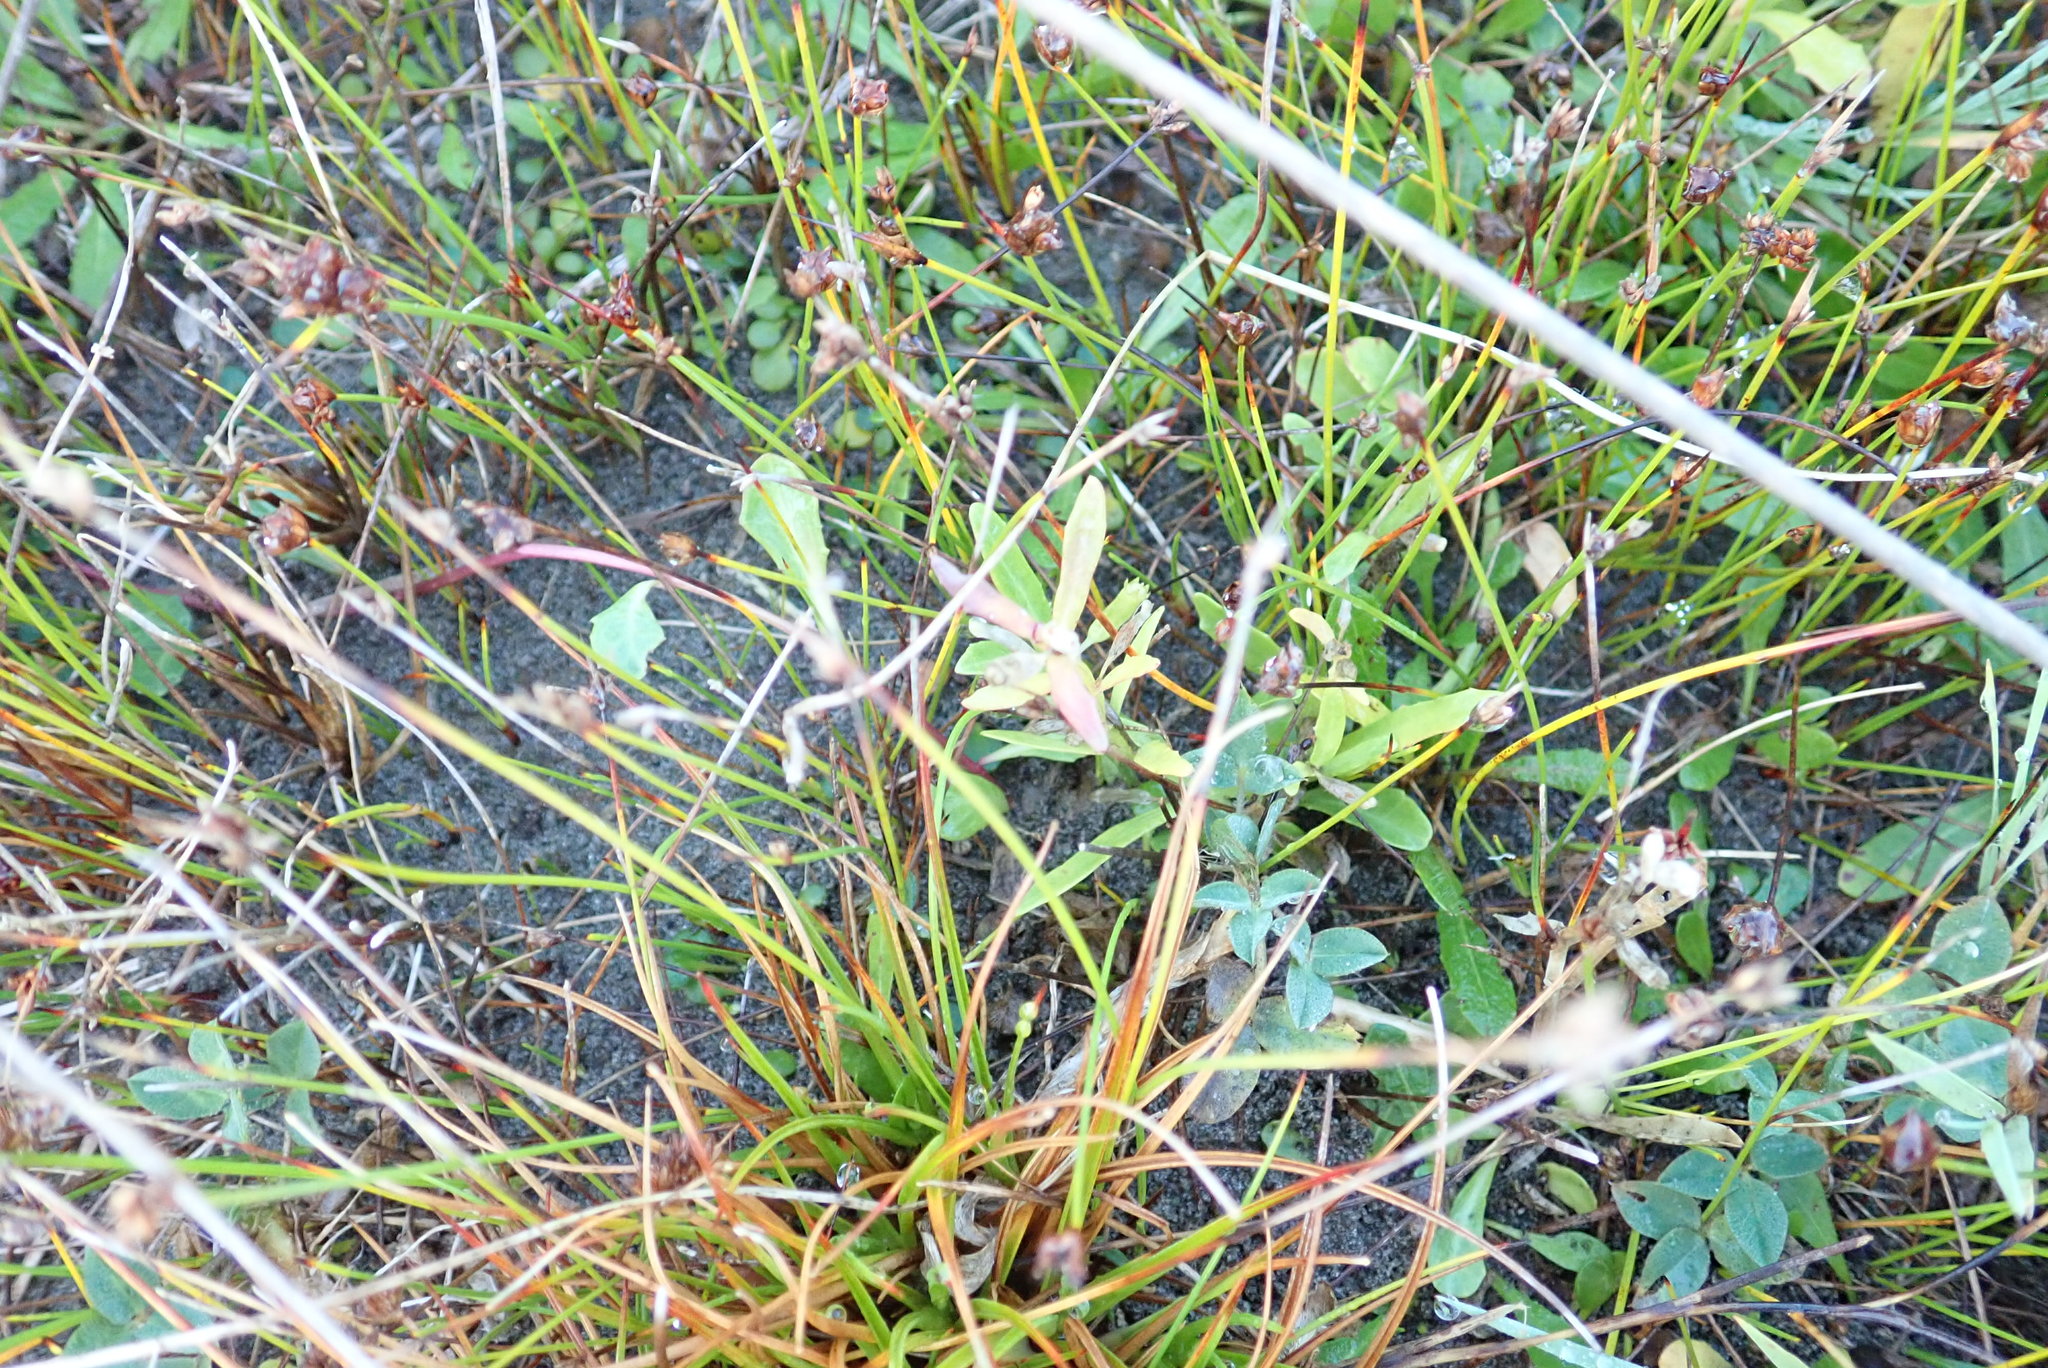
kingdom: Plantae
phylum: Tracheophyta
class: Magnoliopsida
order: Asterales
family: Campanulaceae
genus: Lobelia
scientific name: Lobelia anceps
